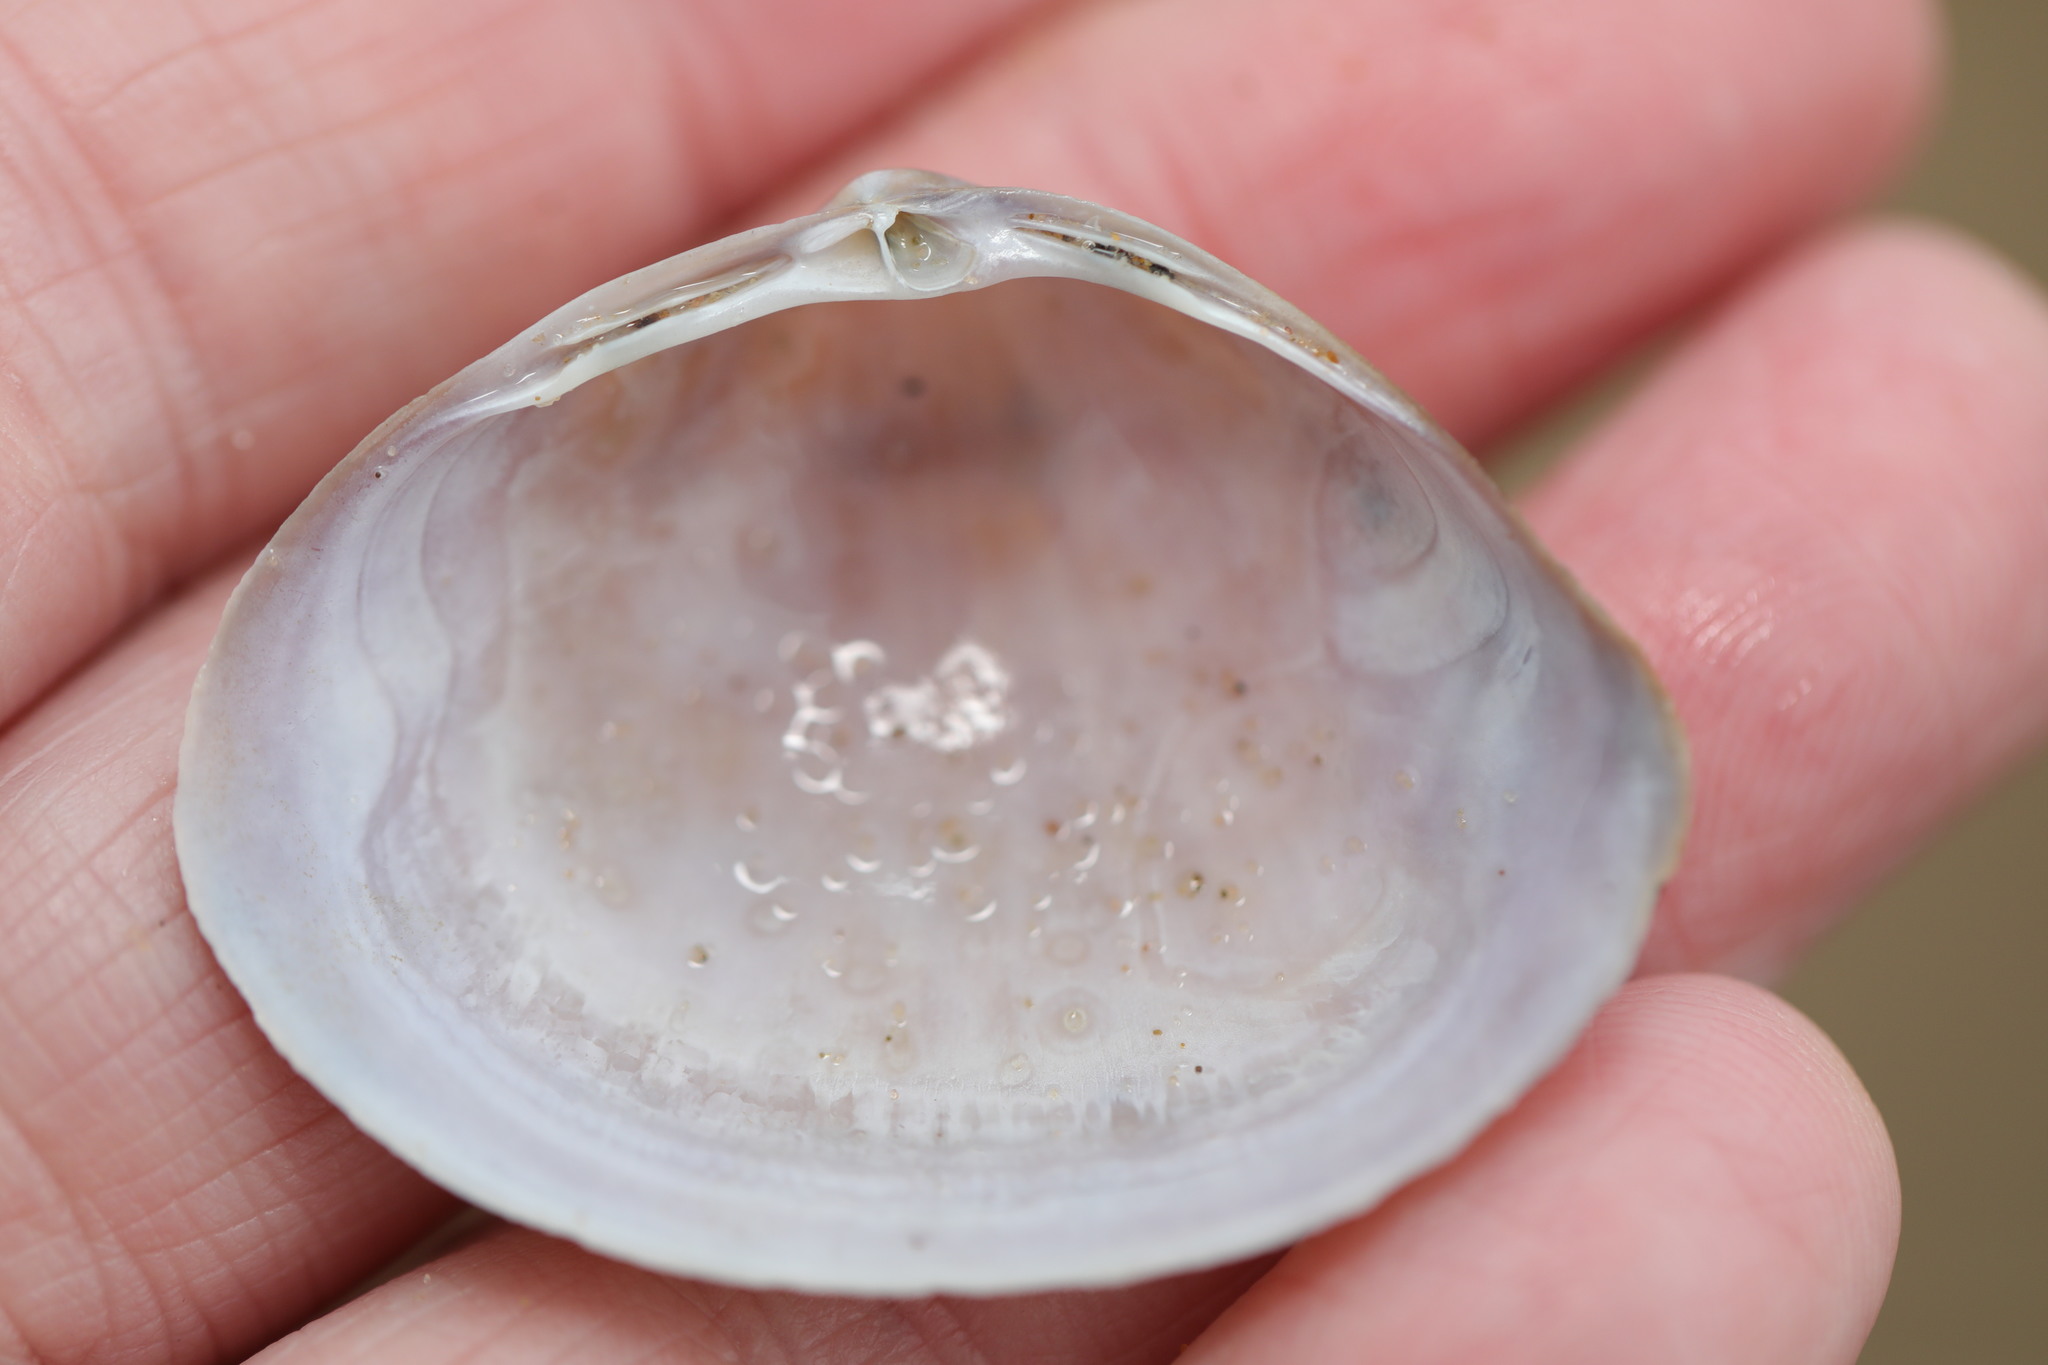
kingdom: Animalia
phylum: Mollusca
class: Bivalvia
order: Venerida
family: Mactridae
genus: Mactra
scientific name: Mactra stultorum
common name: Rayed trough shell
